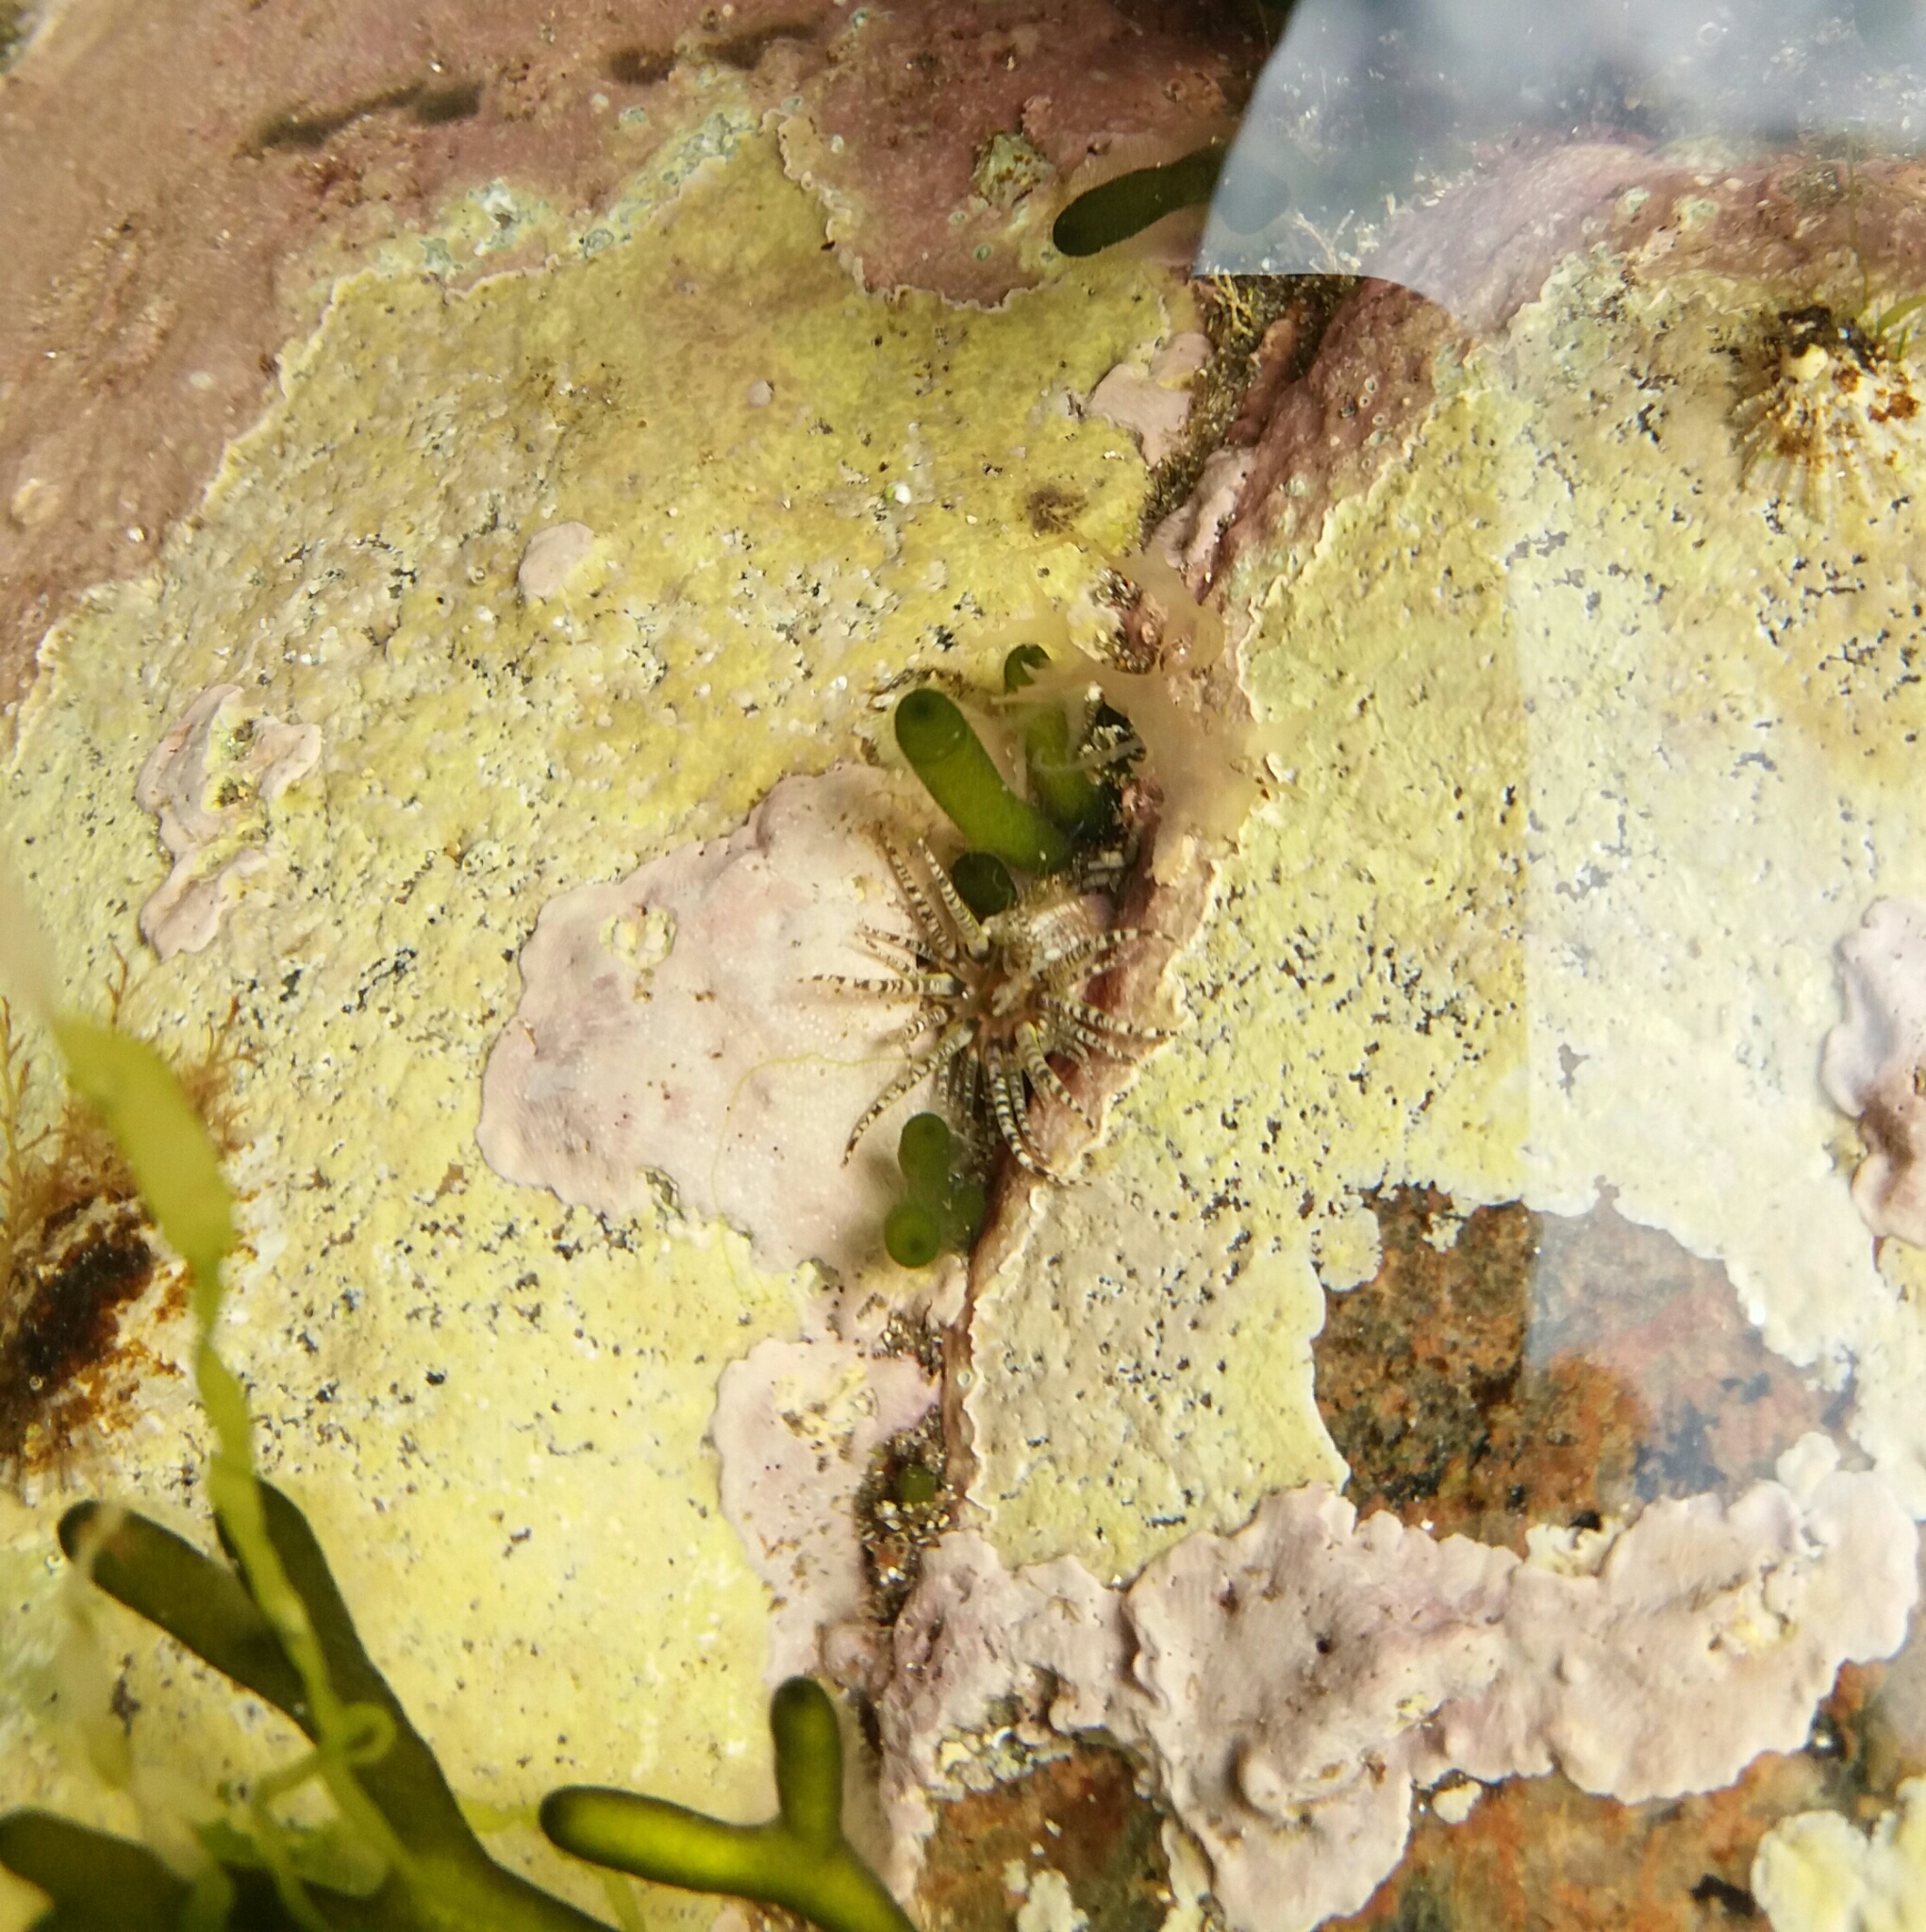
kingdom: Animalia
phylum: Cnidaria
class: Anthozoa
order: Actiniaria
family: Actiniidae
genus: Bunodactis
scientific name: Bunodactis verrucosa
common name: Gem anemone
